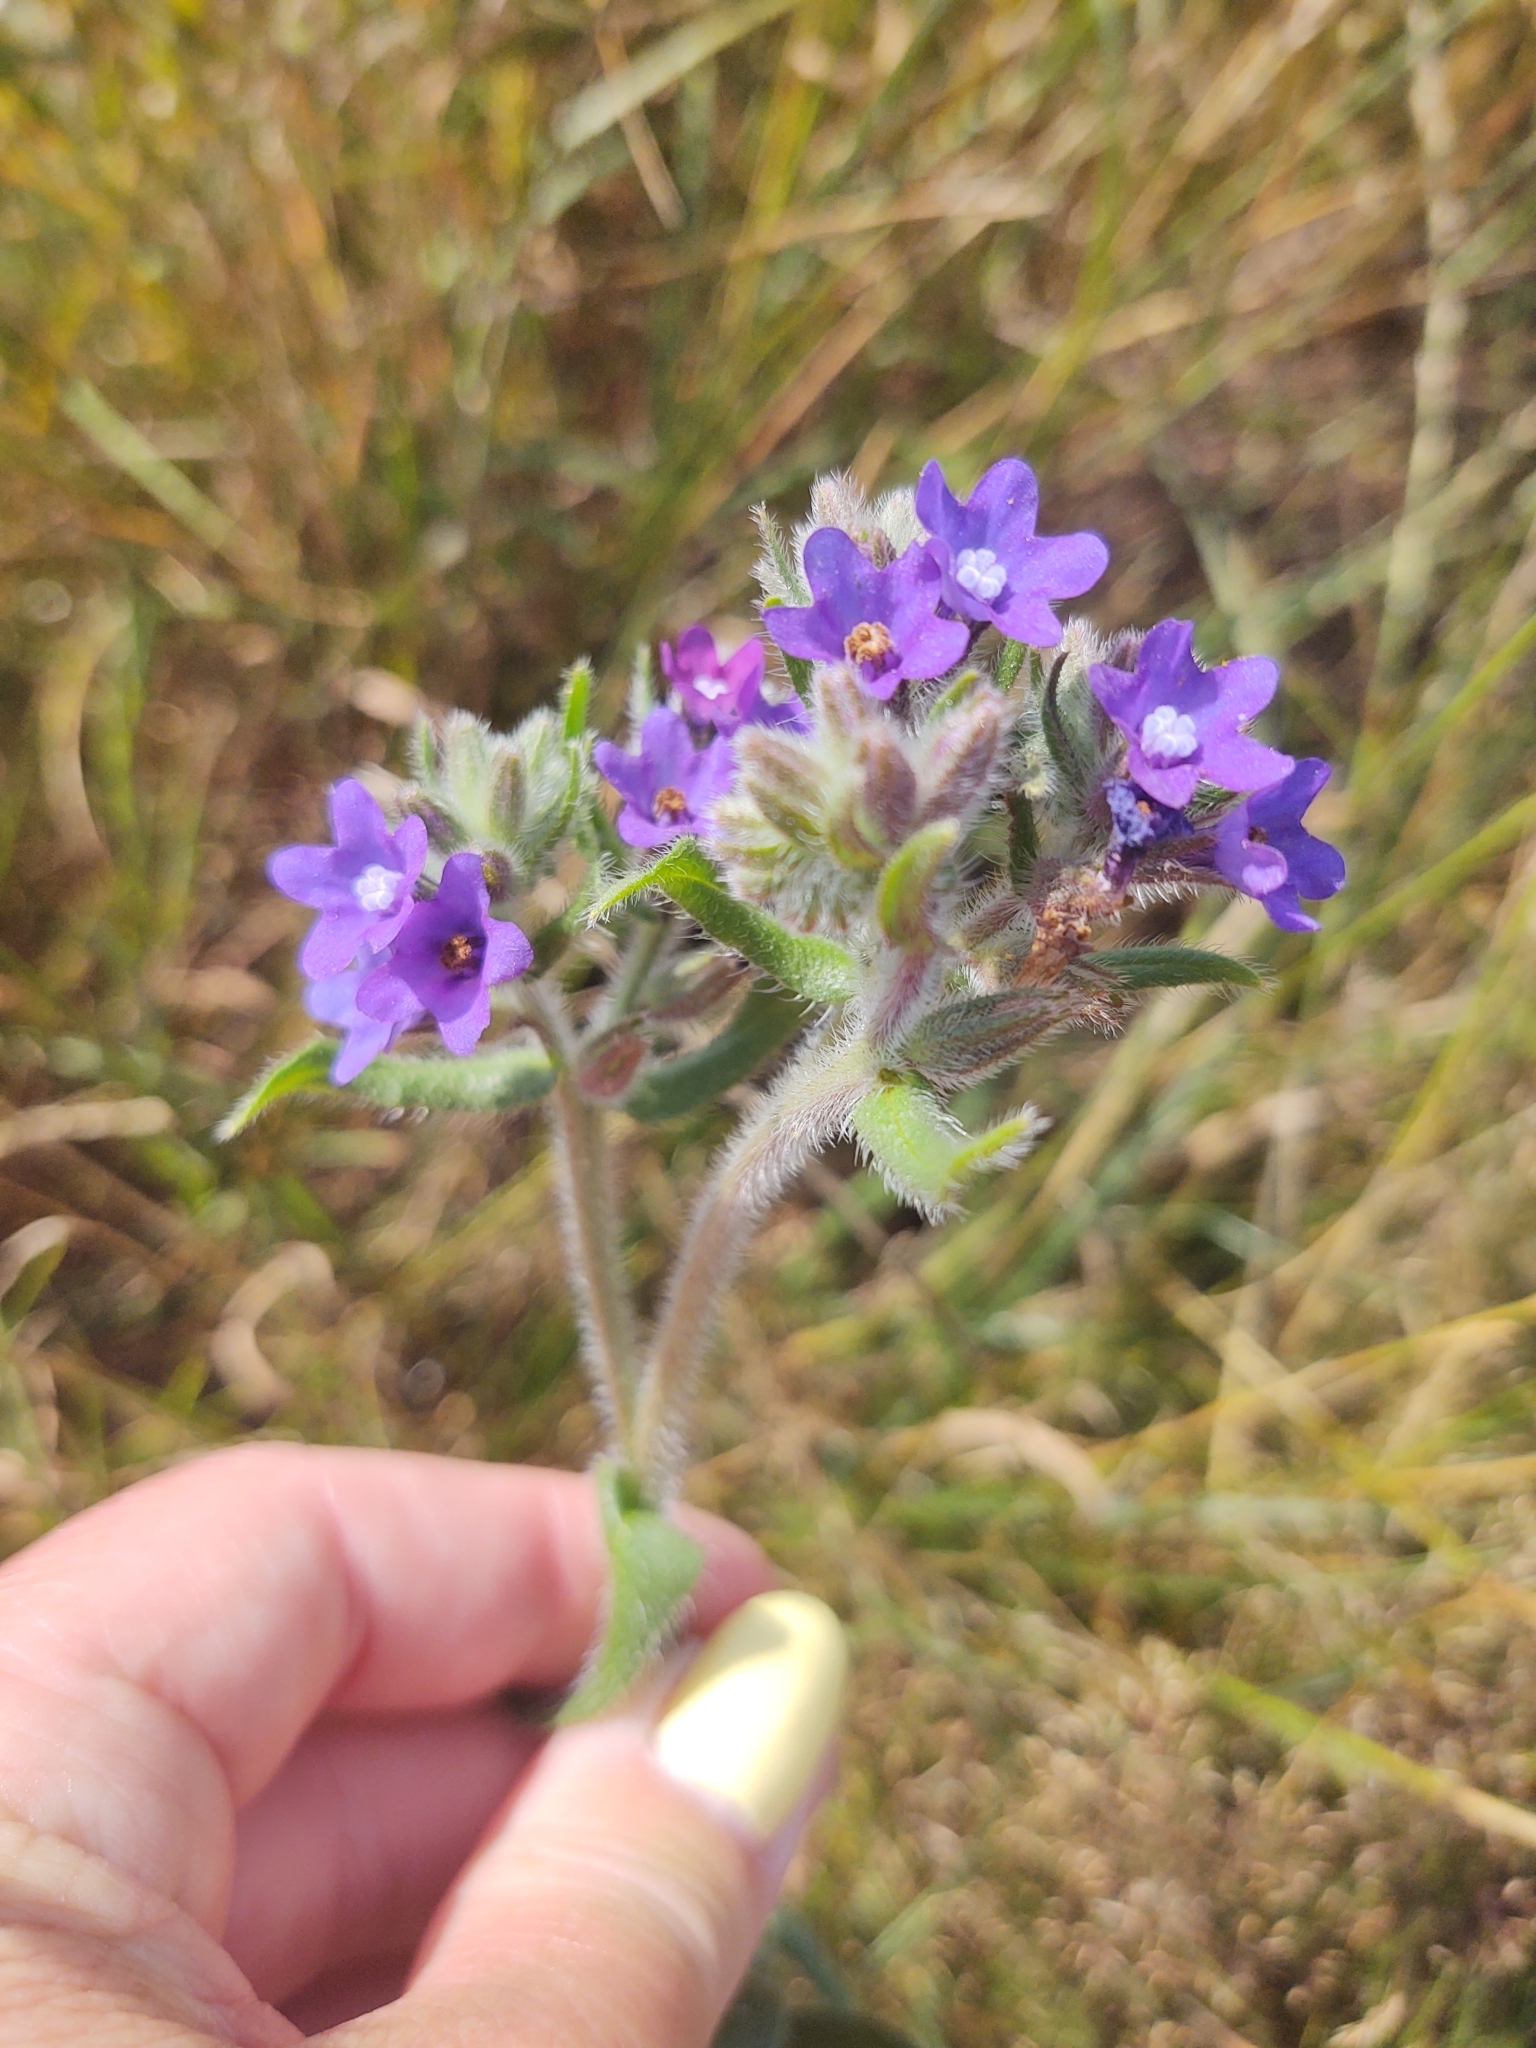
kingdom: Plantae
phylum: Tracheophyta
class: Magnoliopsida
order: Boraginales
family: Boraginaceae
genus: Anchusa
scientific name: Anchusa officinalis
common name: Alkanet
